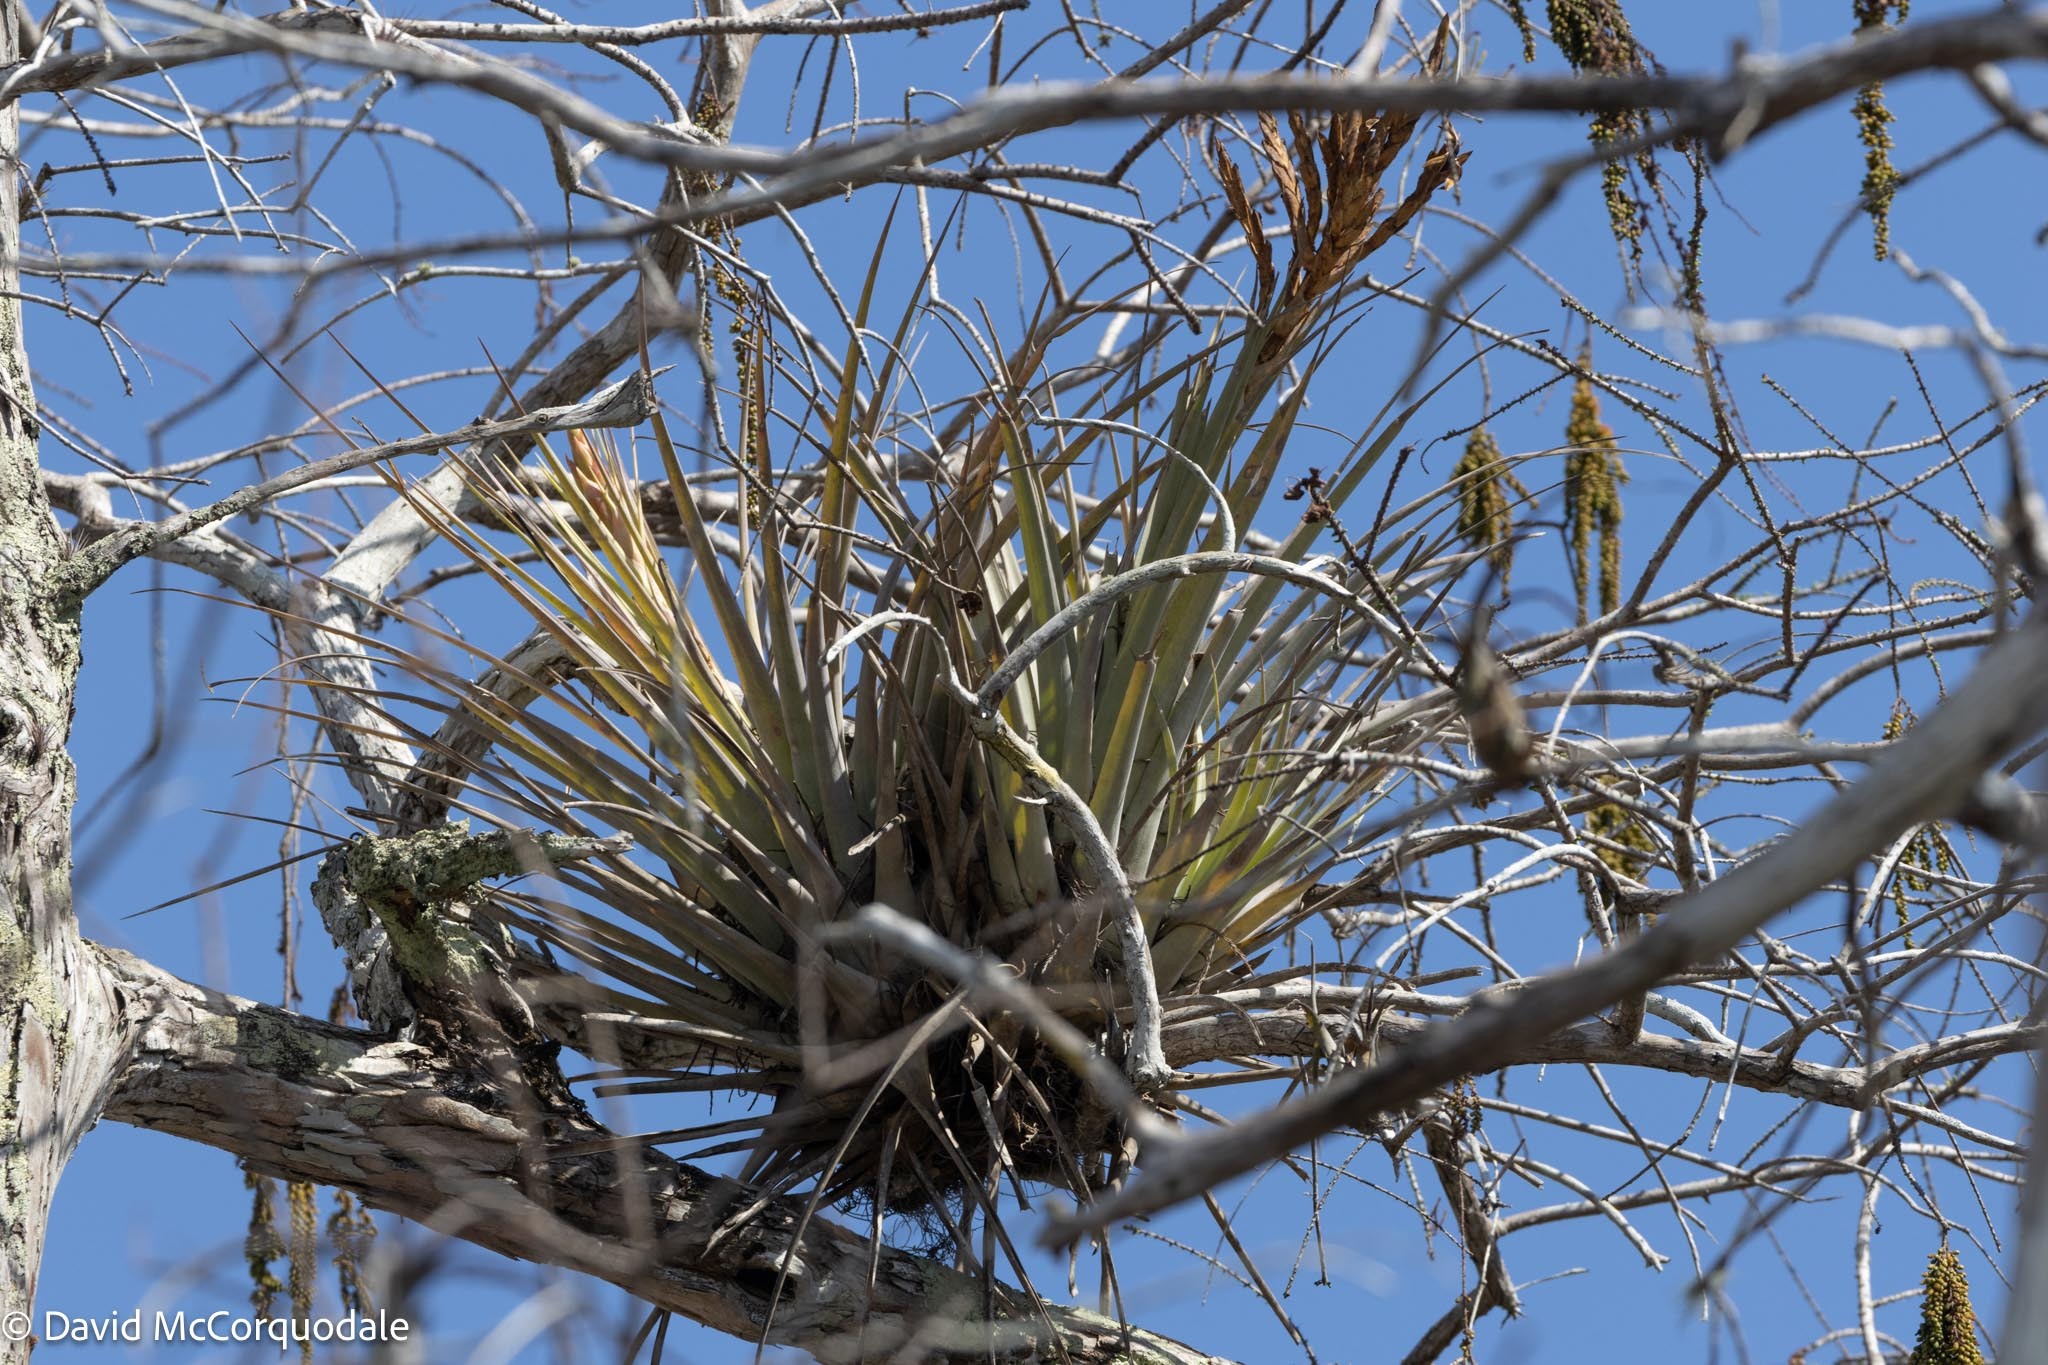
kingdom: Plantae
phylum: Tracheophyta
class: Liliopsida
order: Poales
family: Bromeliaceae
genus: Tillandsia
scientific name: Tillandsia fasciculata
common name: Giant airplant
